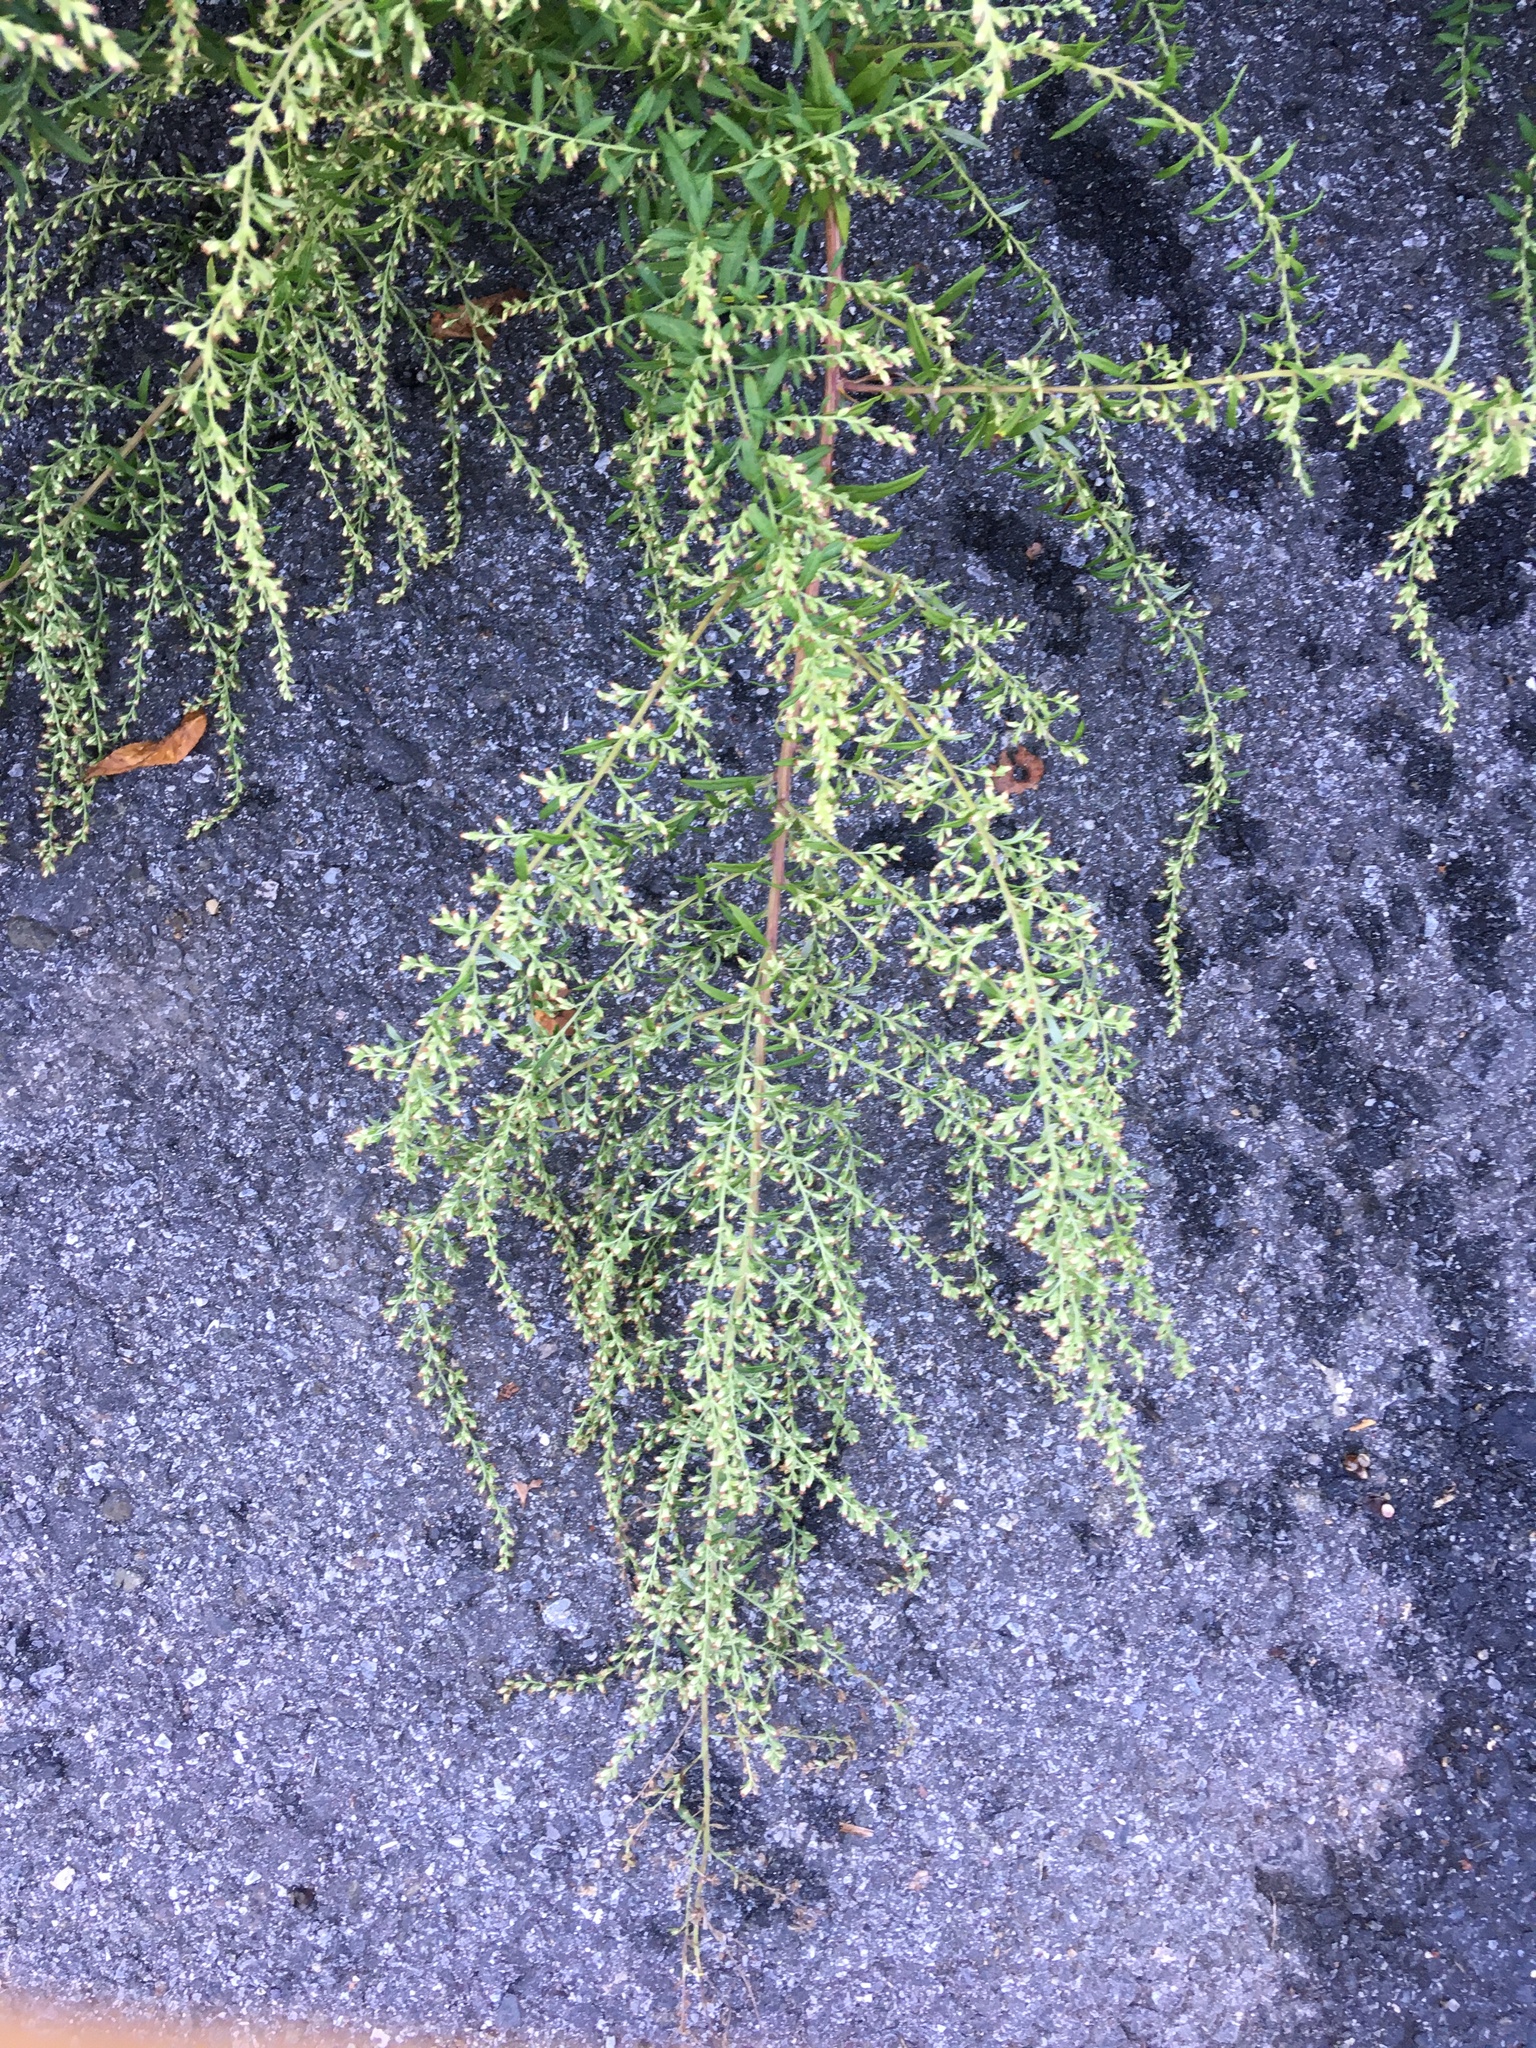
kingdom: Plantae
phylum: Tracheophyta
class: Magnoliopsida
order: Asterales
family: Asteraceae
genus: Artemisia
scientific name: Artemisia vulgaris
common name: Mugwort
